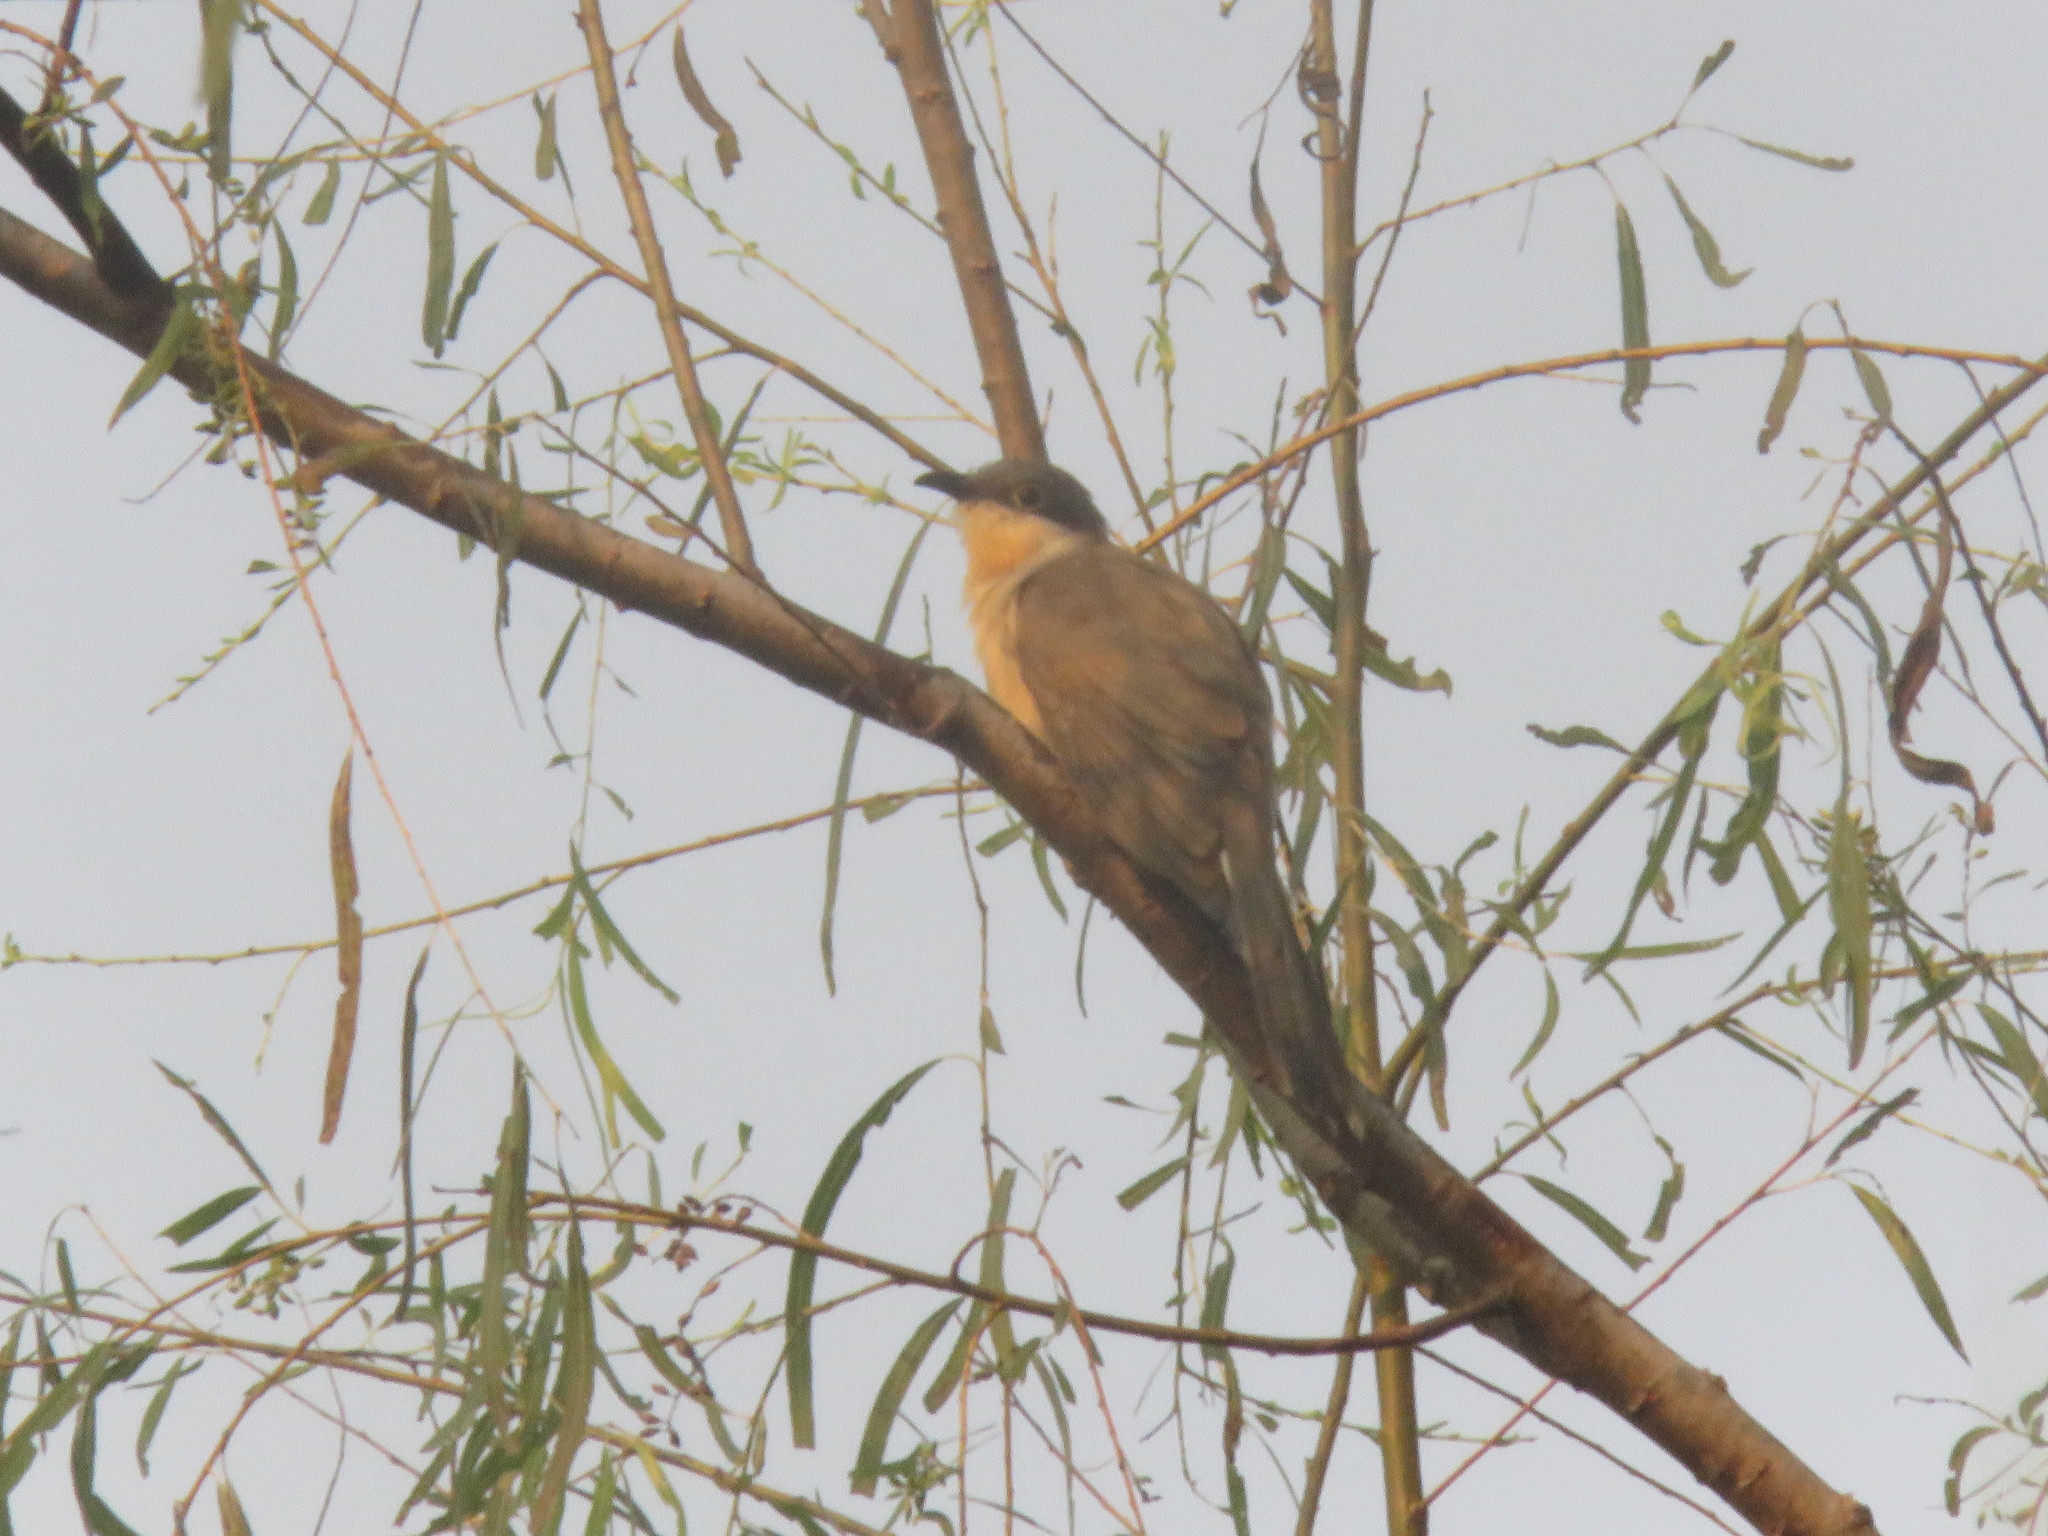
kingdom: Animalia
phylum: Chordata
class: Aves
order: Cuculiformes
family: Cuculidae
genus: Coccyzus
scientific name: Coccyzus melacoryphus
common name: Dark-billed cuckoo
